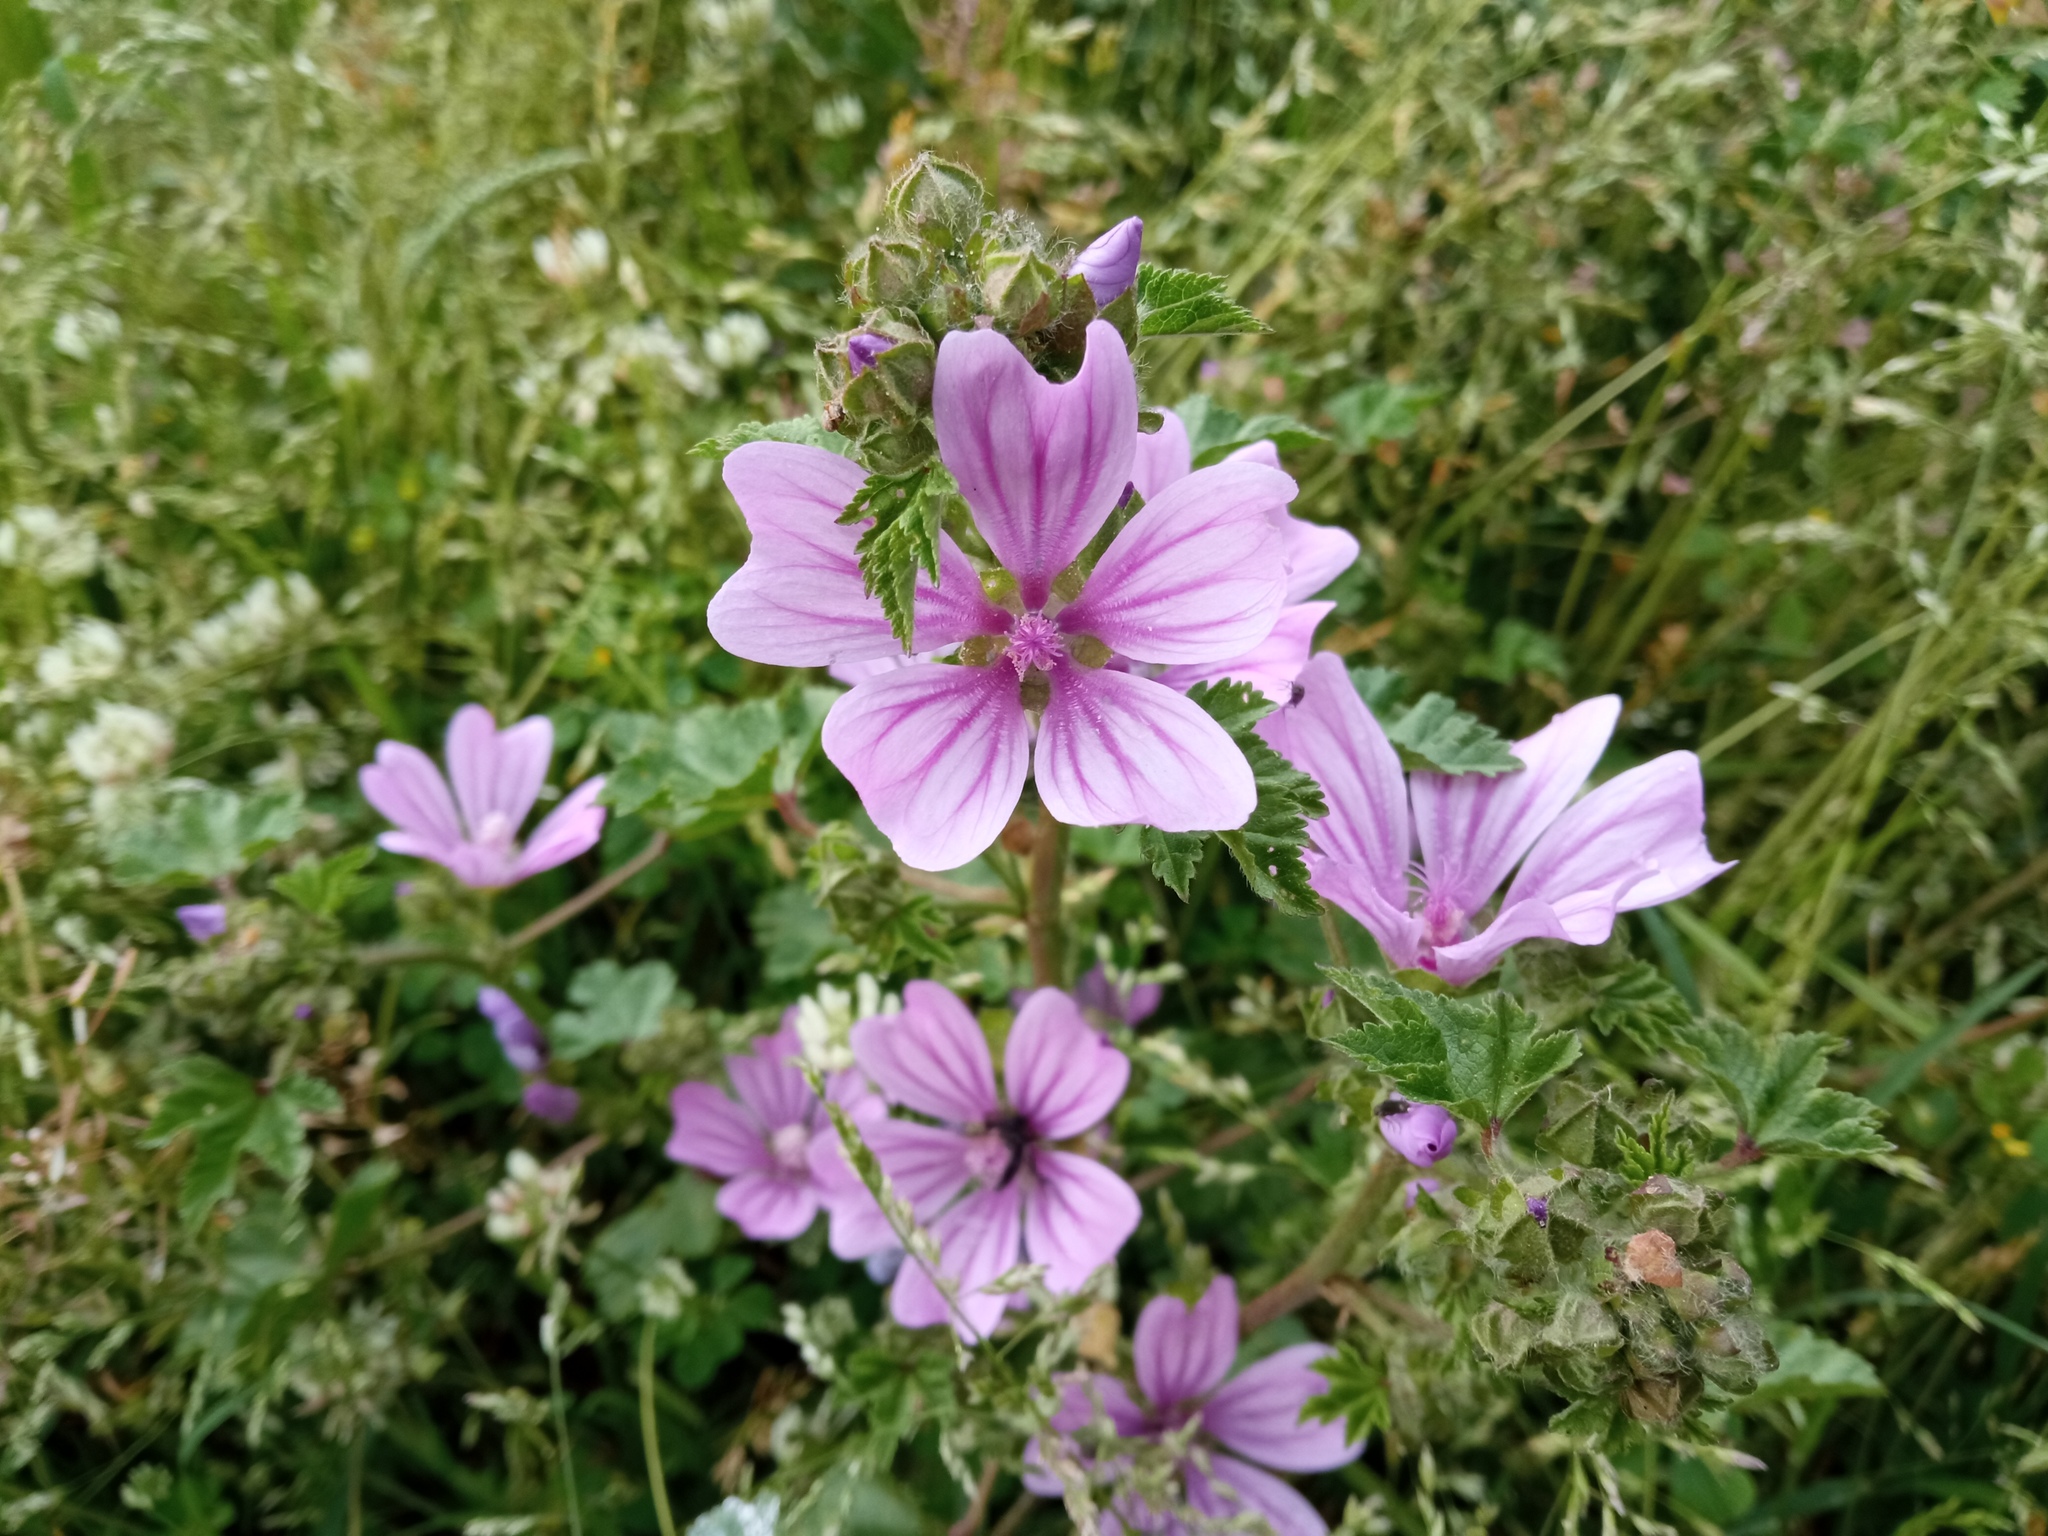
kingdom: Plantae
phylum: Tracheophyta
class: Magnoliopsida
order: Malvales
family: Malvaceae
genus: Malva
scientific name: Malva sylvestris
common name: Common mallow
